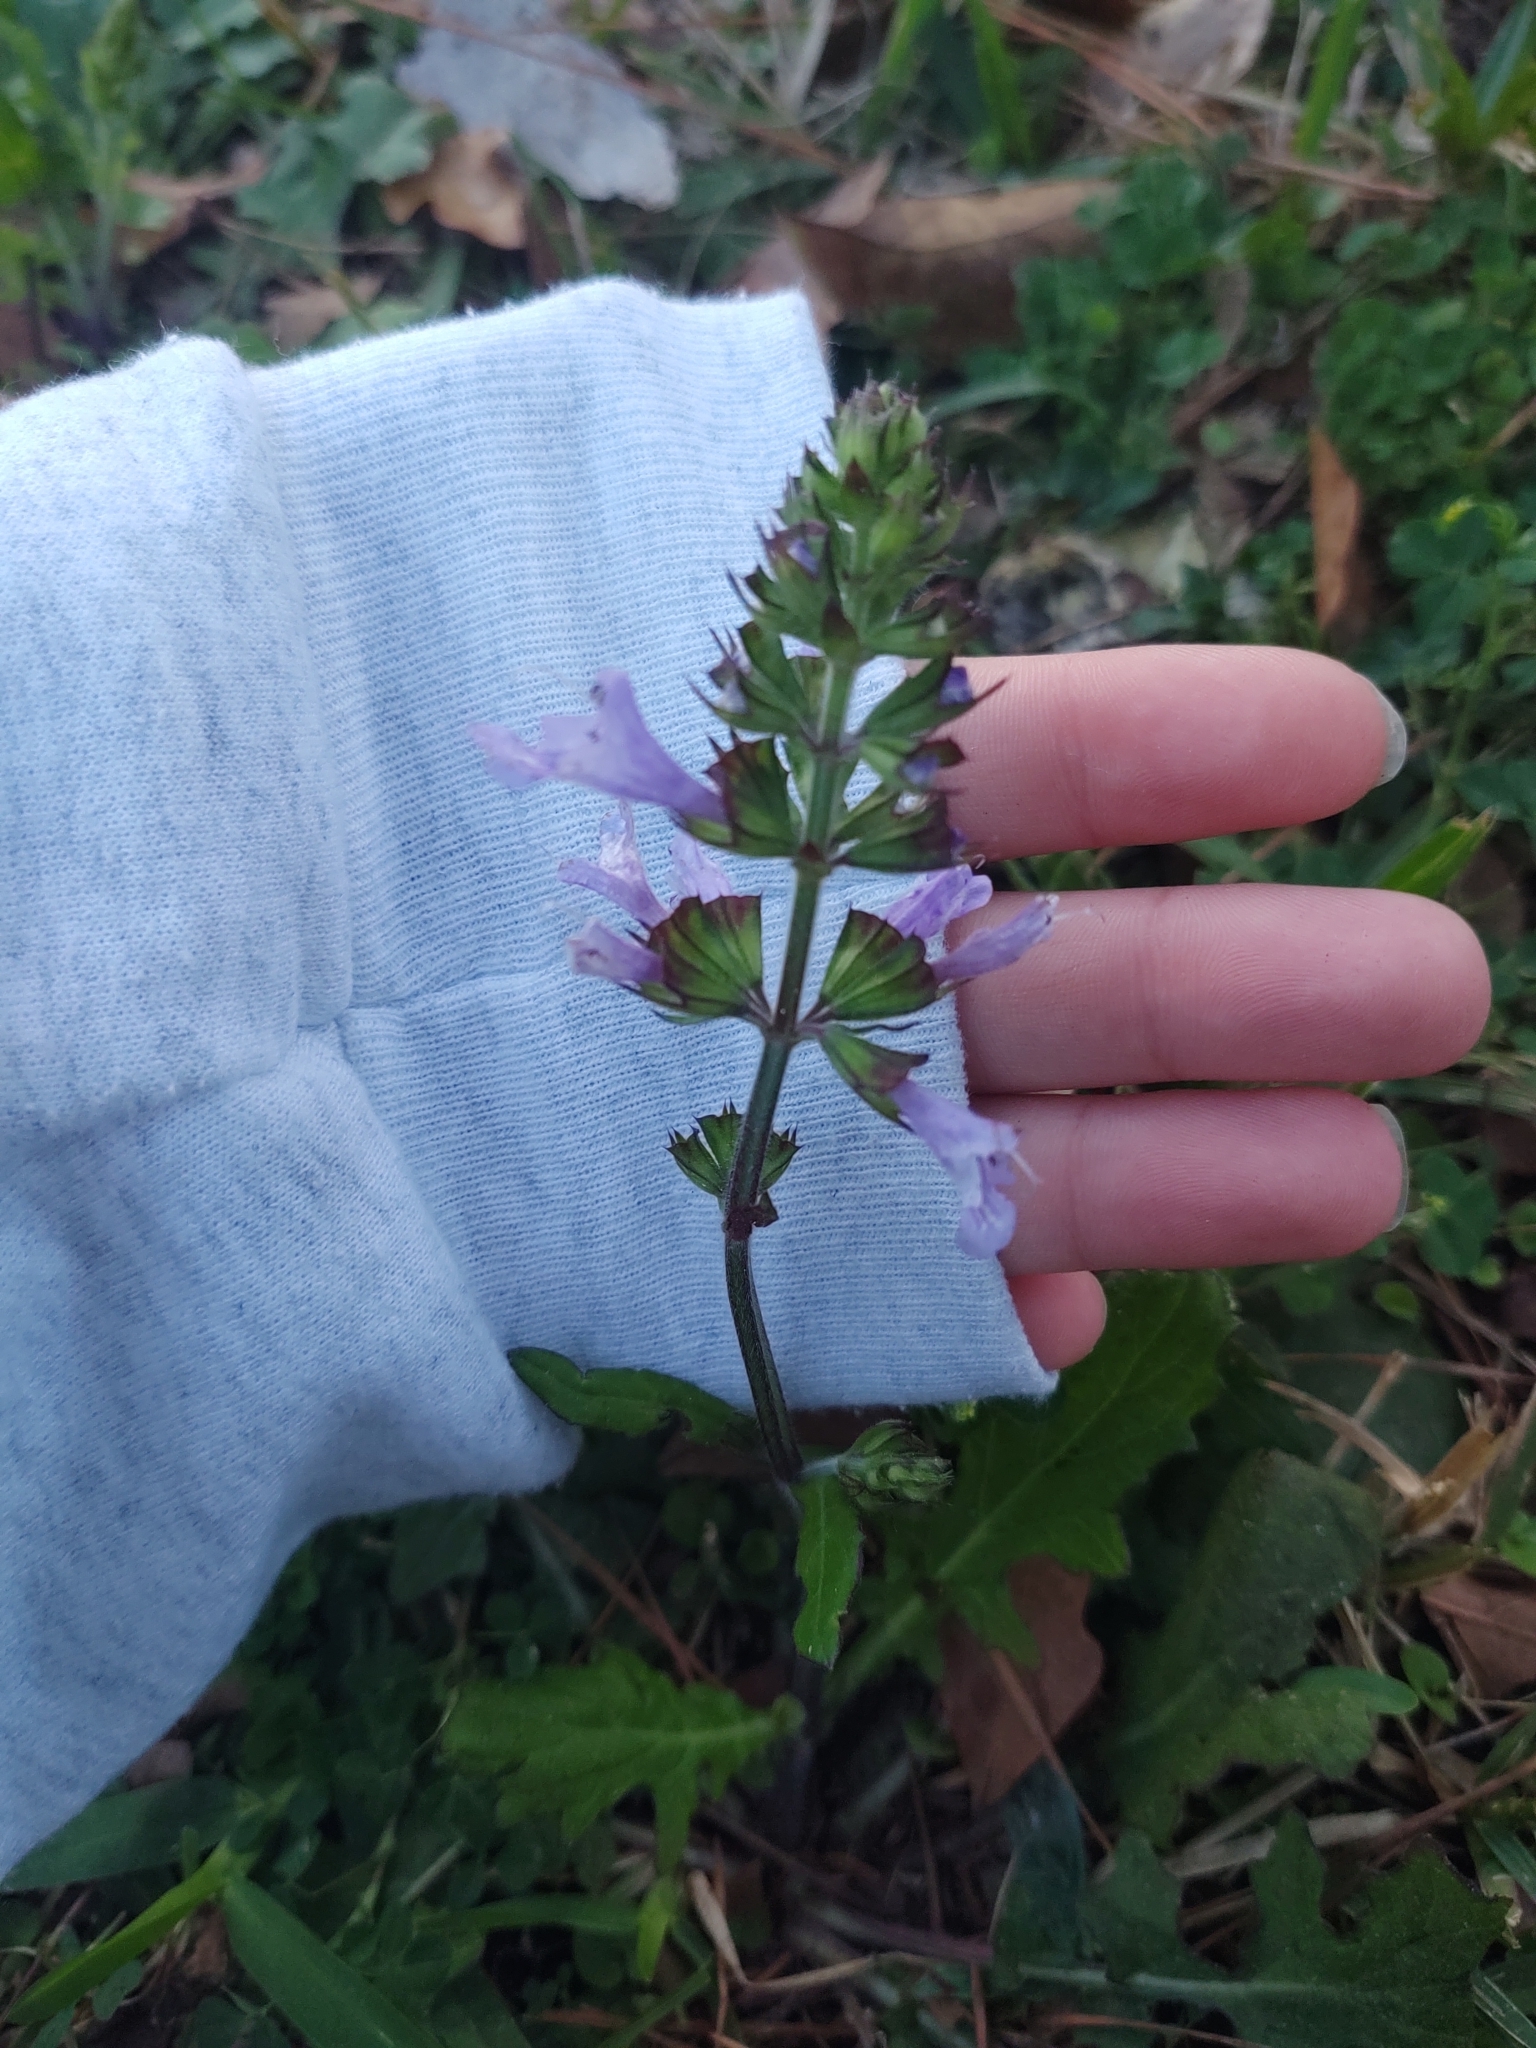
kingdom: Plantae
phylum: Tracheophyta
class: Magnoliopsida
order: Lamiales
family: Lamiaceae
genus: Salvia
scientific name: Salvia lyrata
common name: Cancerweed
